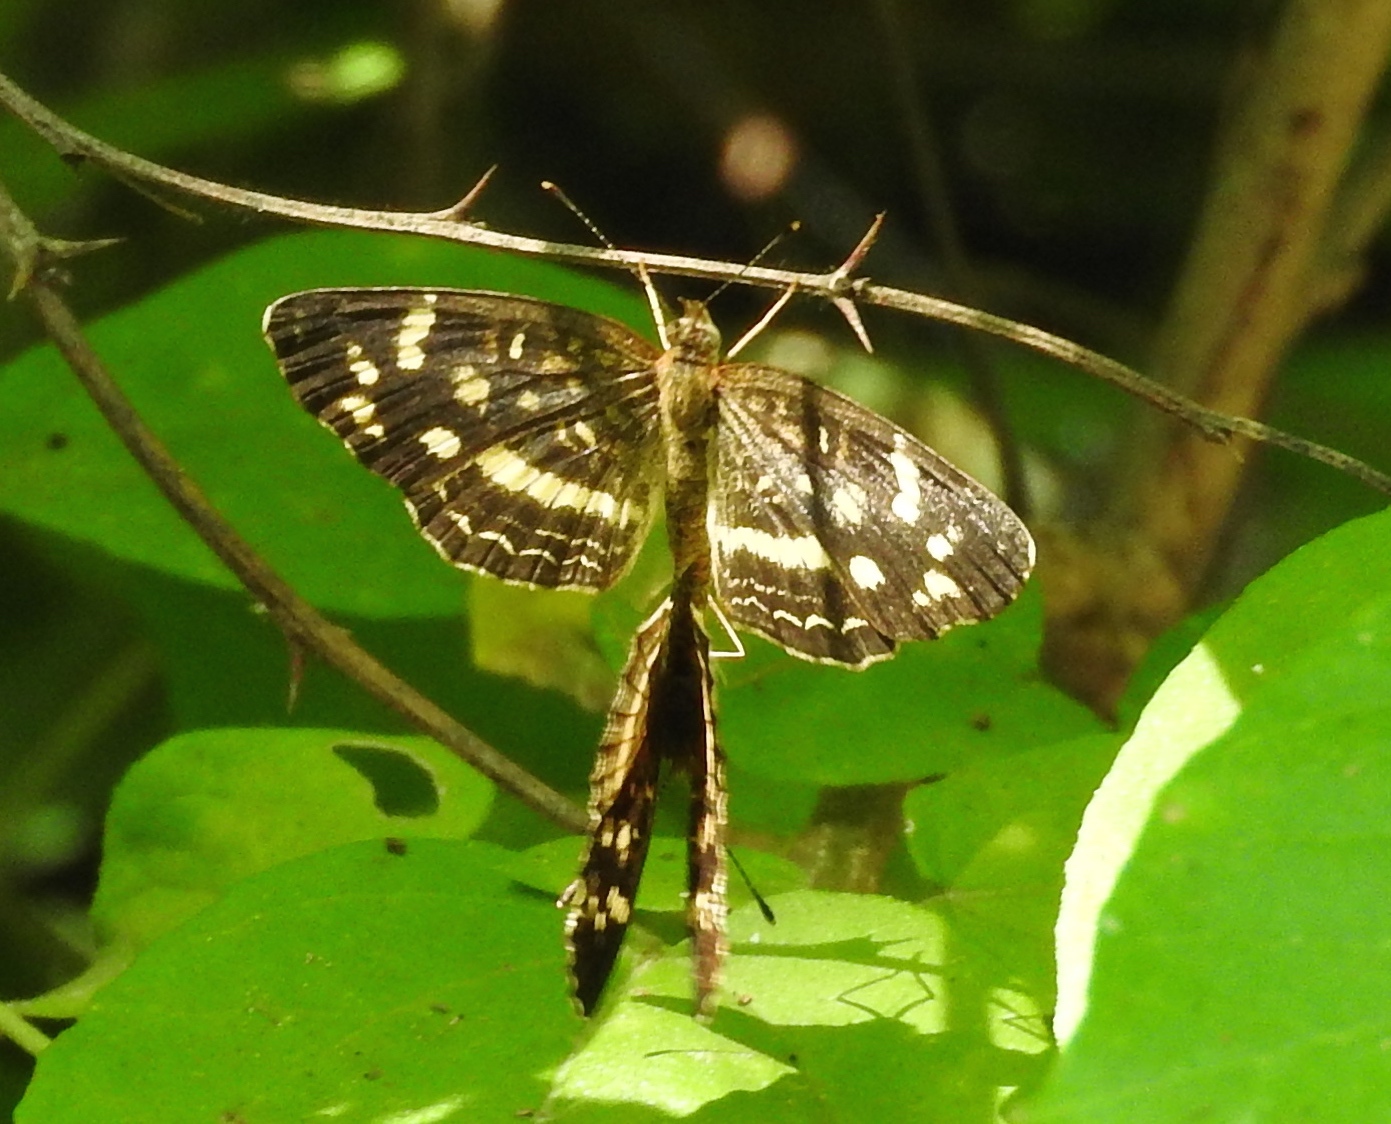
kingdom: Animalia
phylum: Arthropoda
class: Insecta
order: Lepidoptera
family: Nymphalidae
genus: Anthanassa
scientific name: Anthanassa tulcis
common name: Pale-banded crescent
